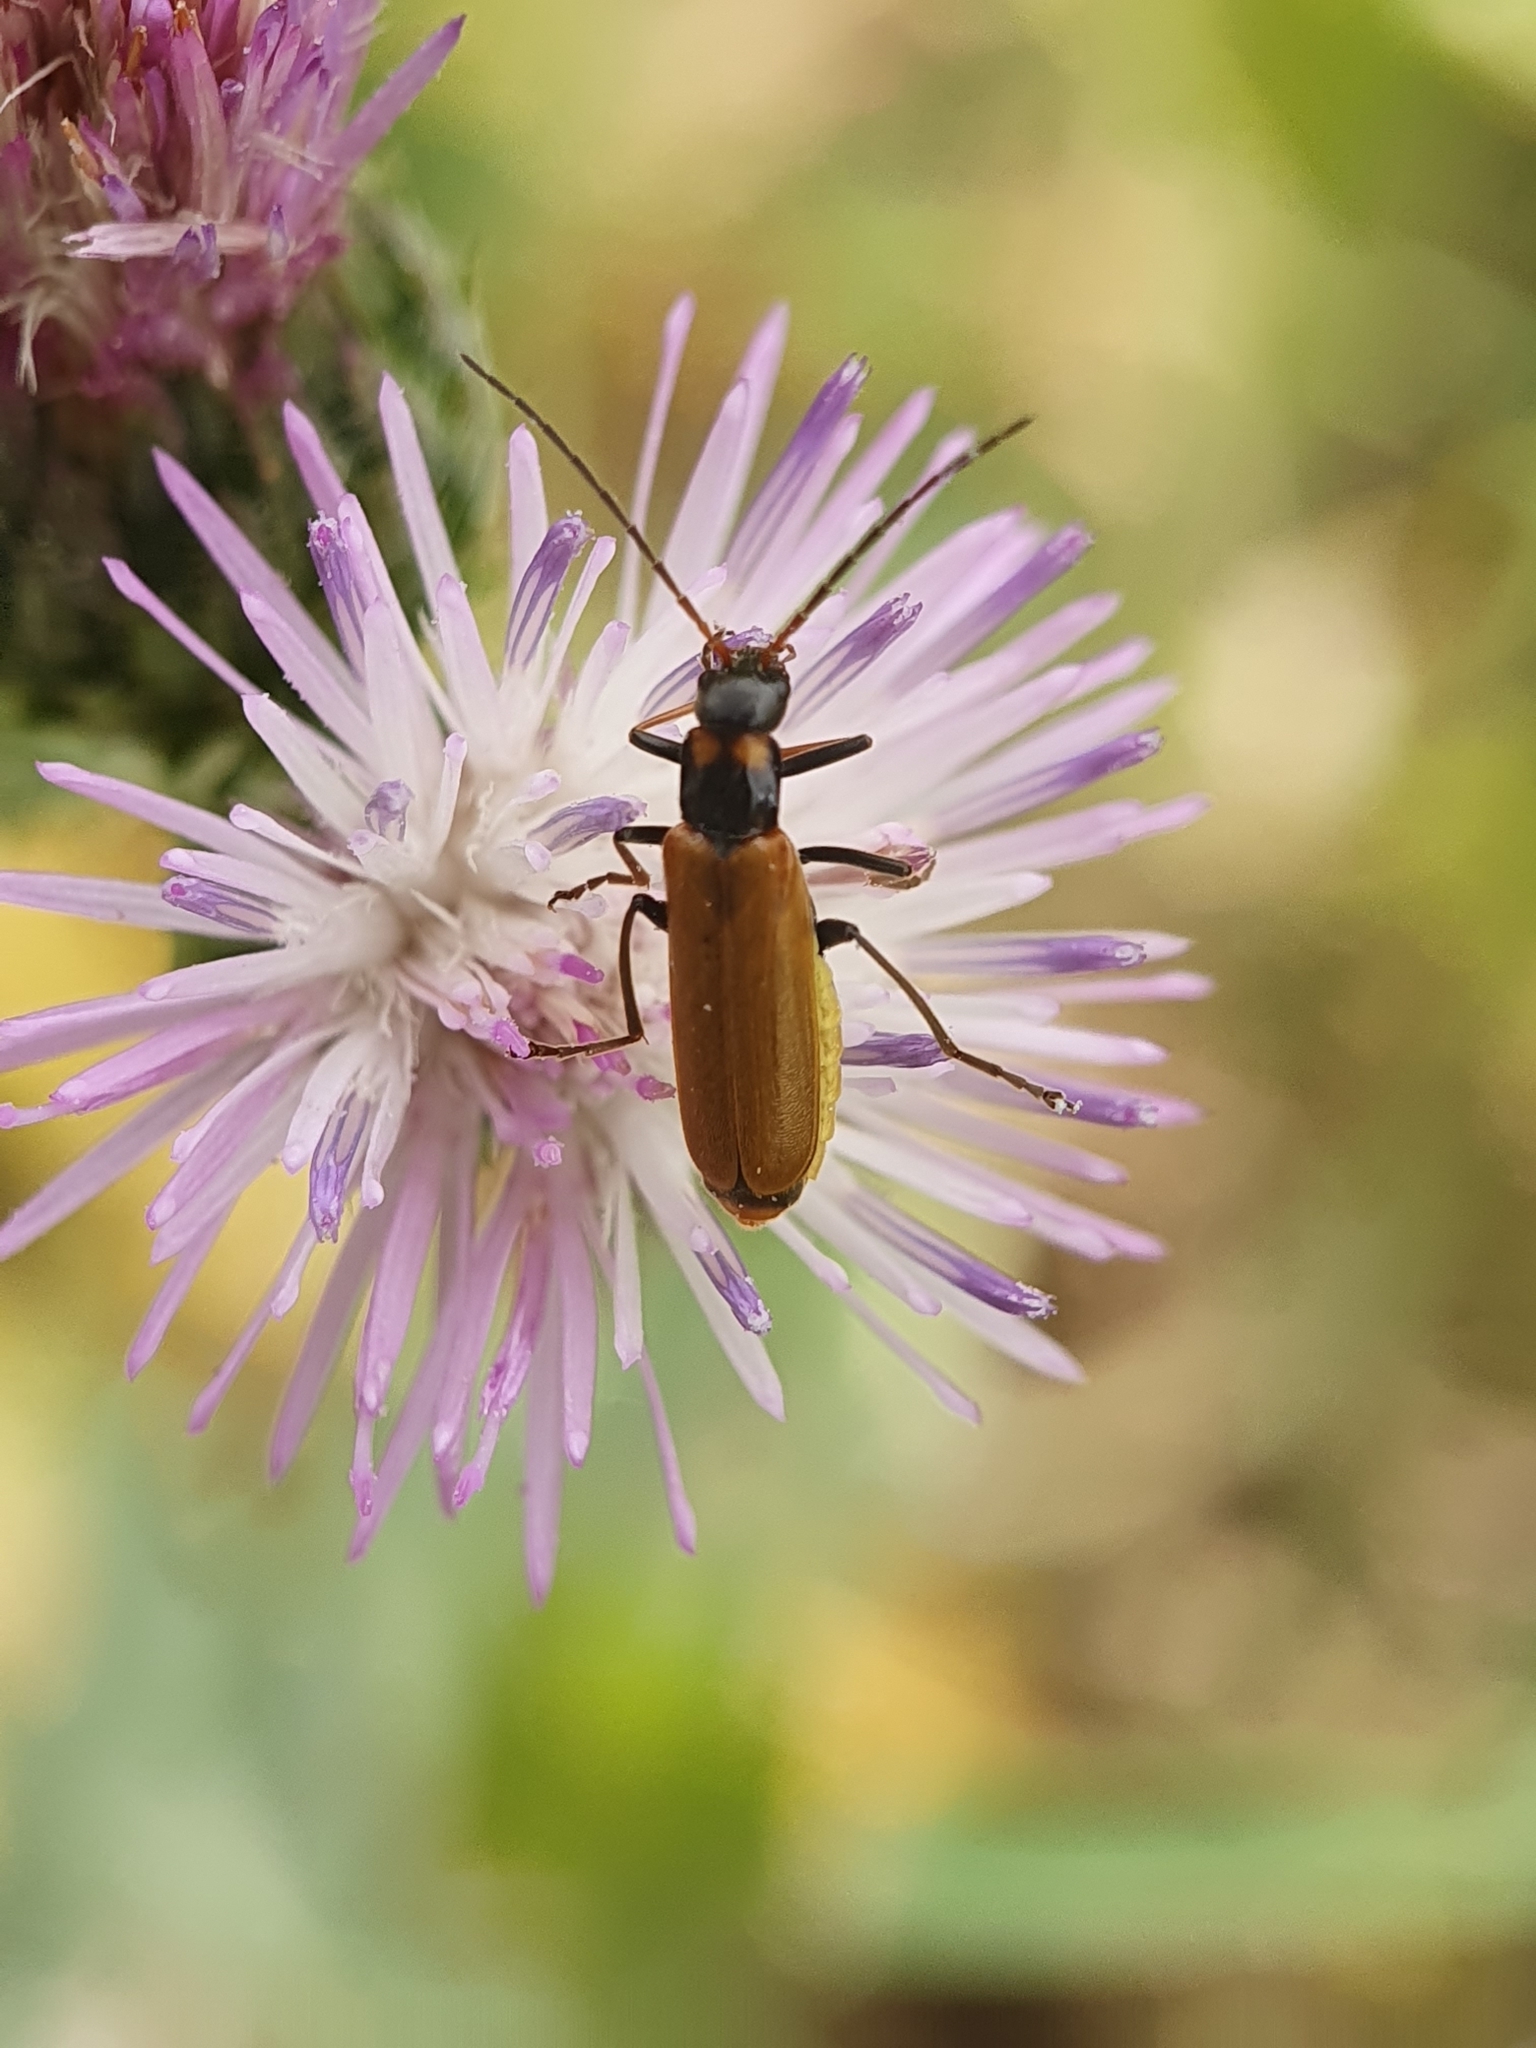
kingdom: Animalia
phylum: Arthropoda
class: Insecta
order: Coleoptera
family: Cantharidae
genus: Rhagonycha
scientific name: Rhagonycha nigripes
